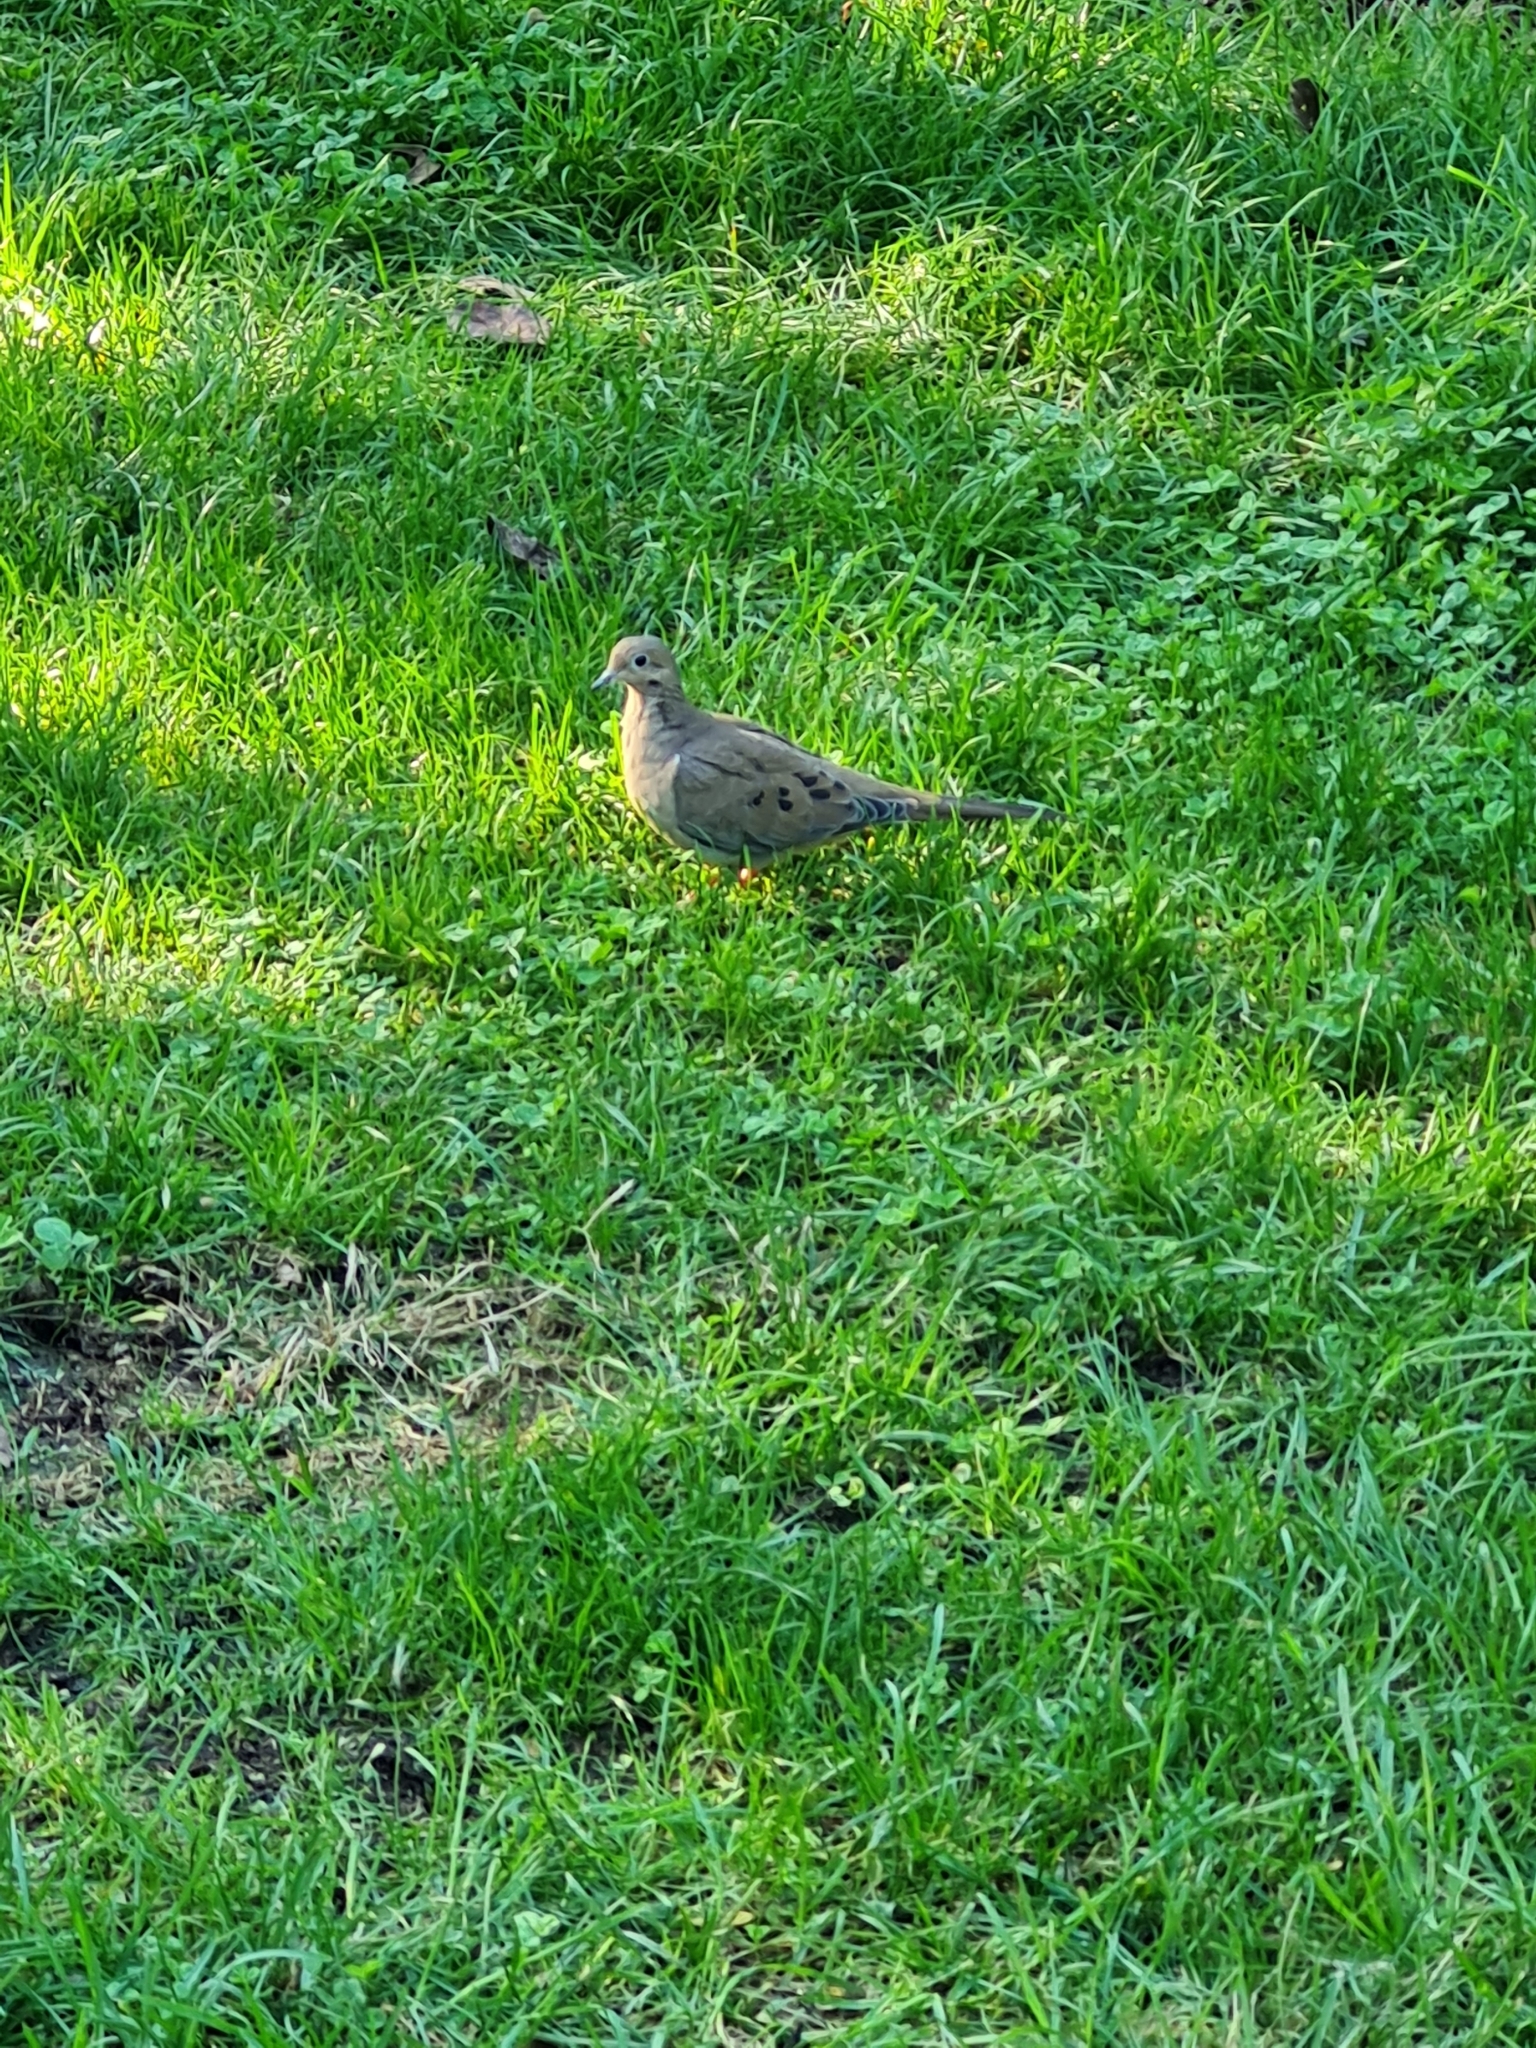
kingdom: Animalia
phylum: Chordata
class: Aves
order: Columbiformes
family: Columbidae
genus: Zenaida
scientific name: Zenaida macroura
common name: Mourning dove
